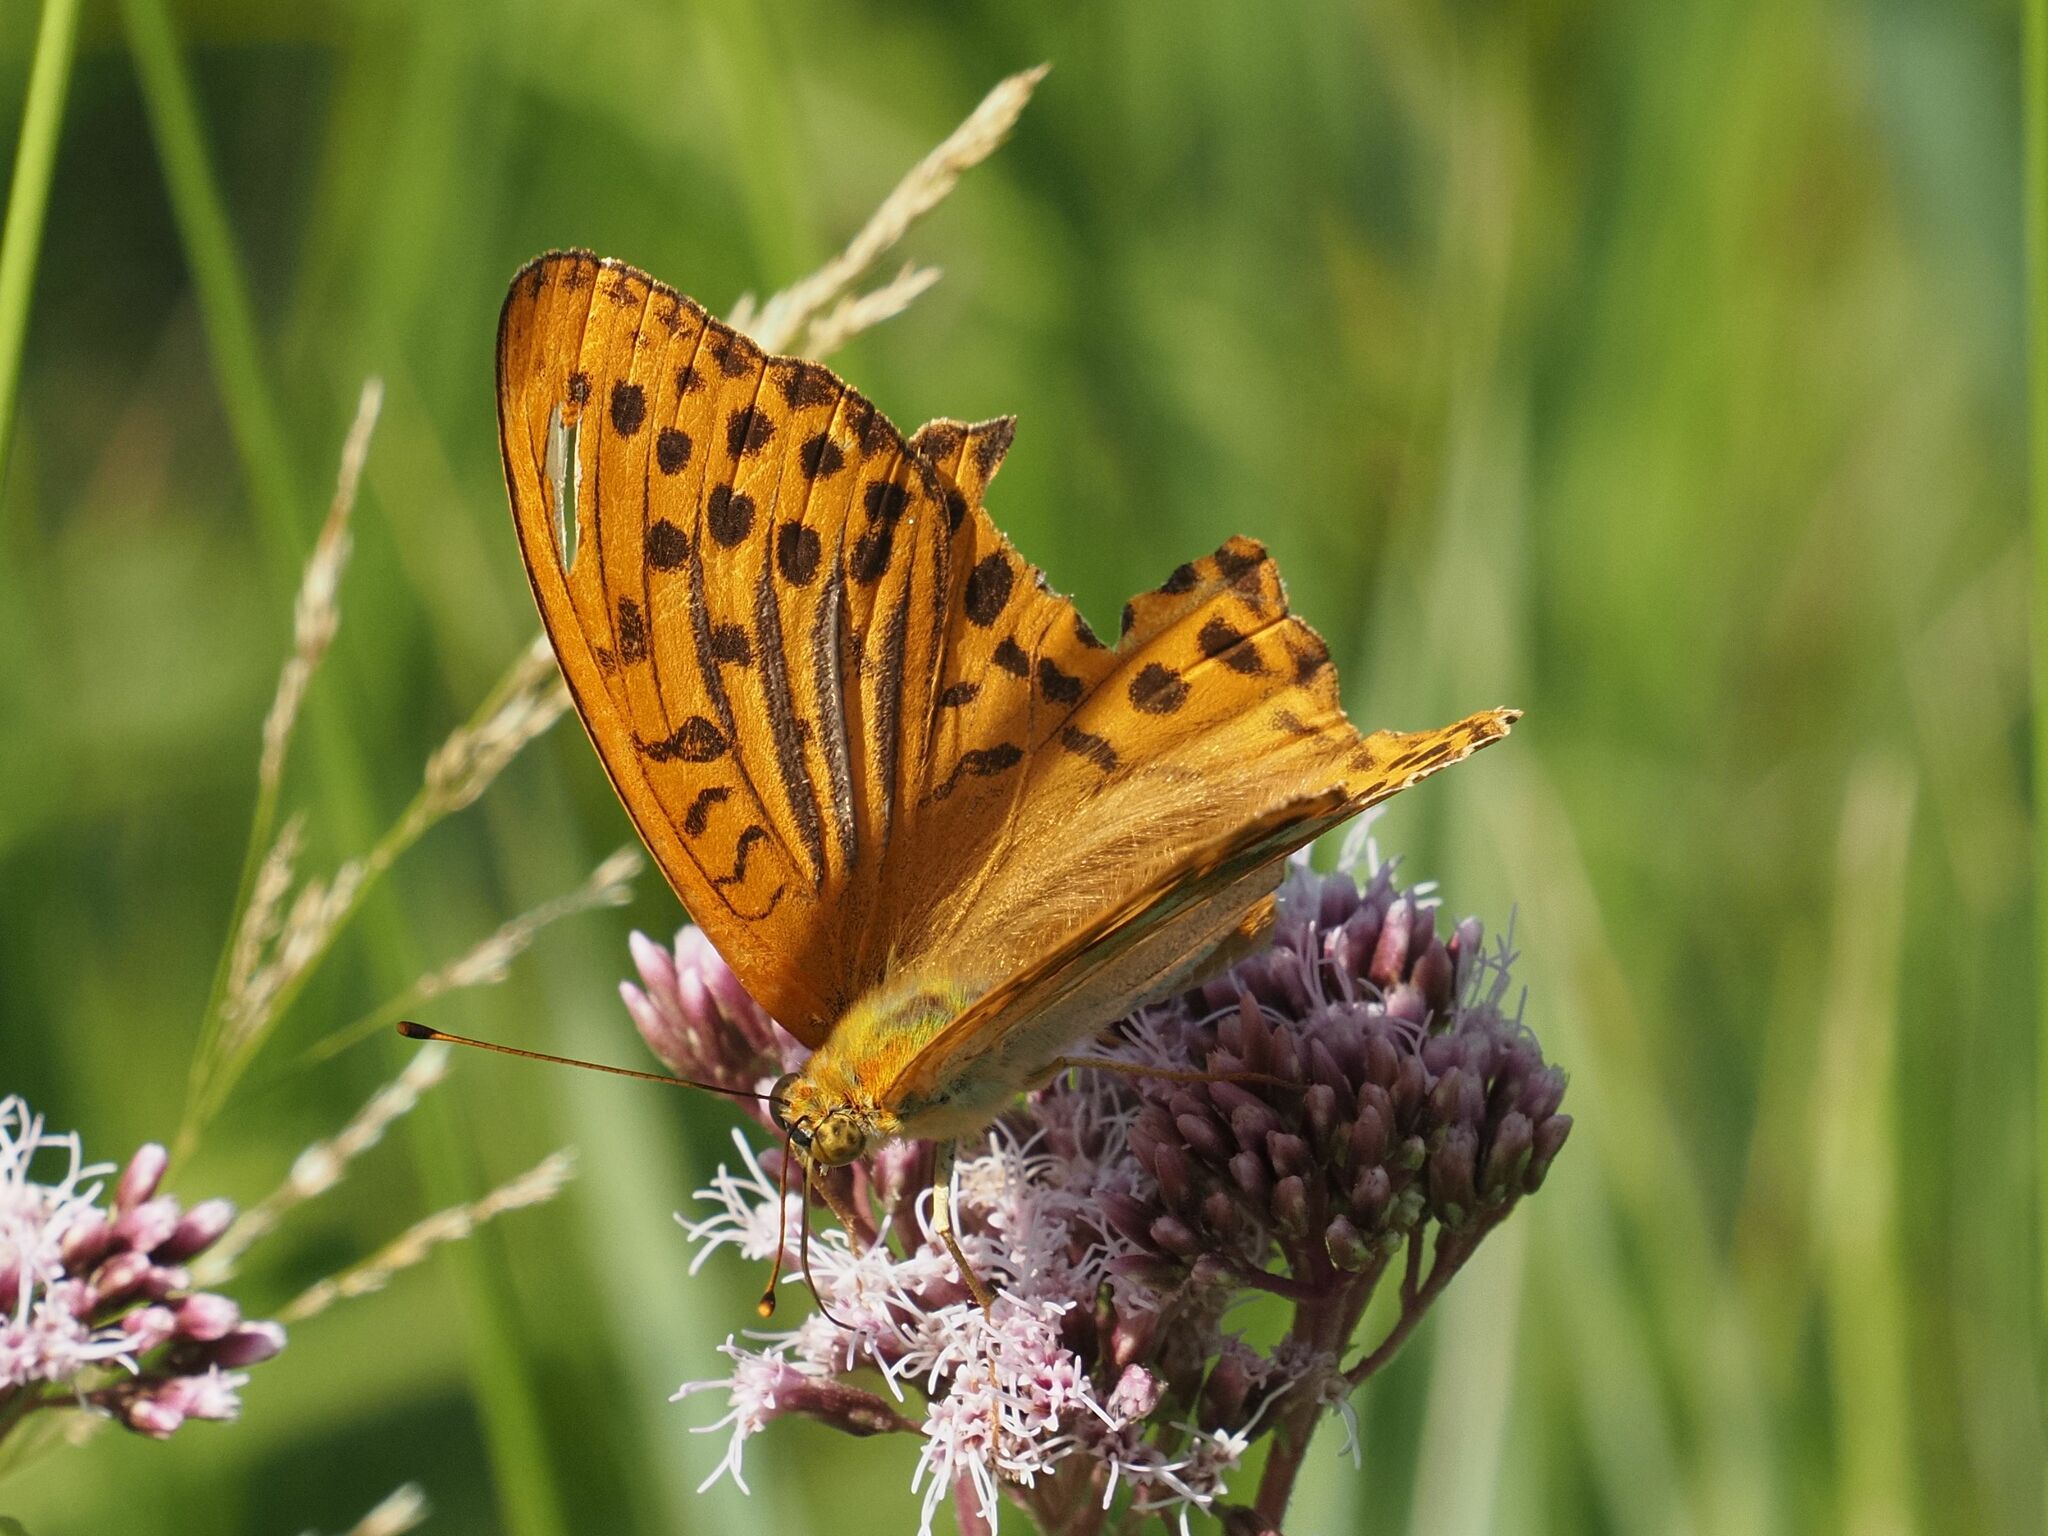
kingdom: Animalia
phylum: Arthropoda
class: Insecta
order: Lepidoptera
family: Nymphalidae
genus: Argynnis
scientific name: Argynnis paphia
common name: Silver-washed fritillary
